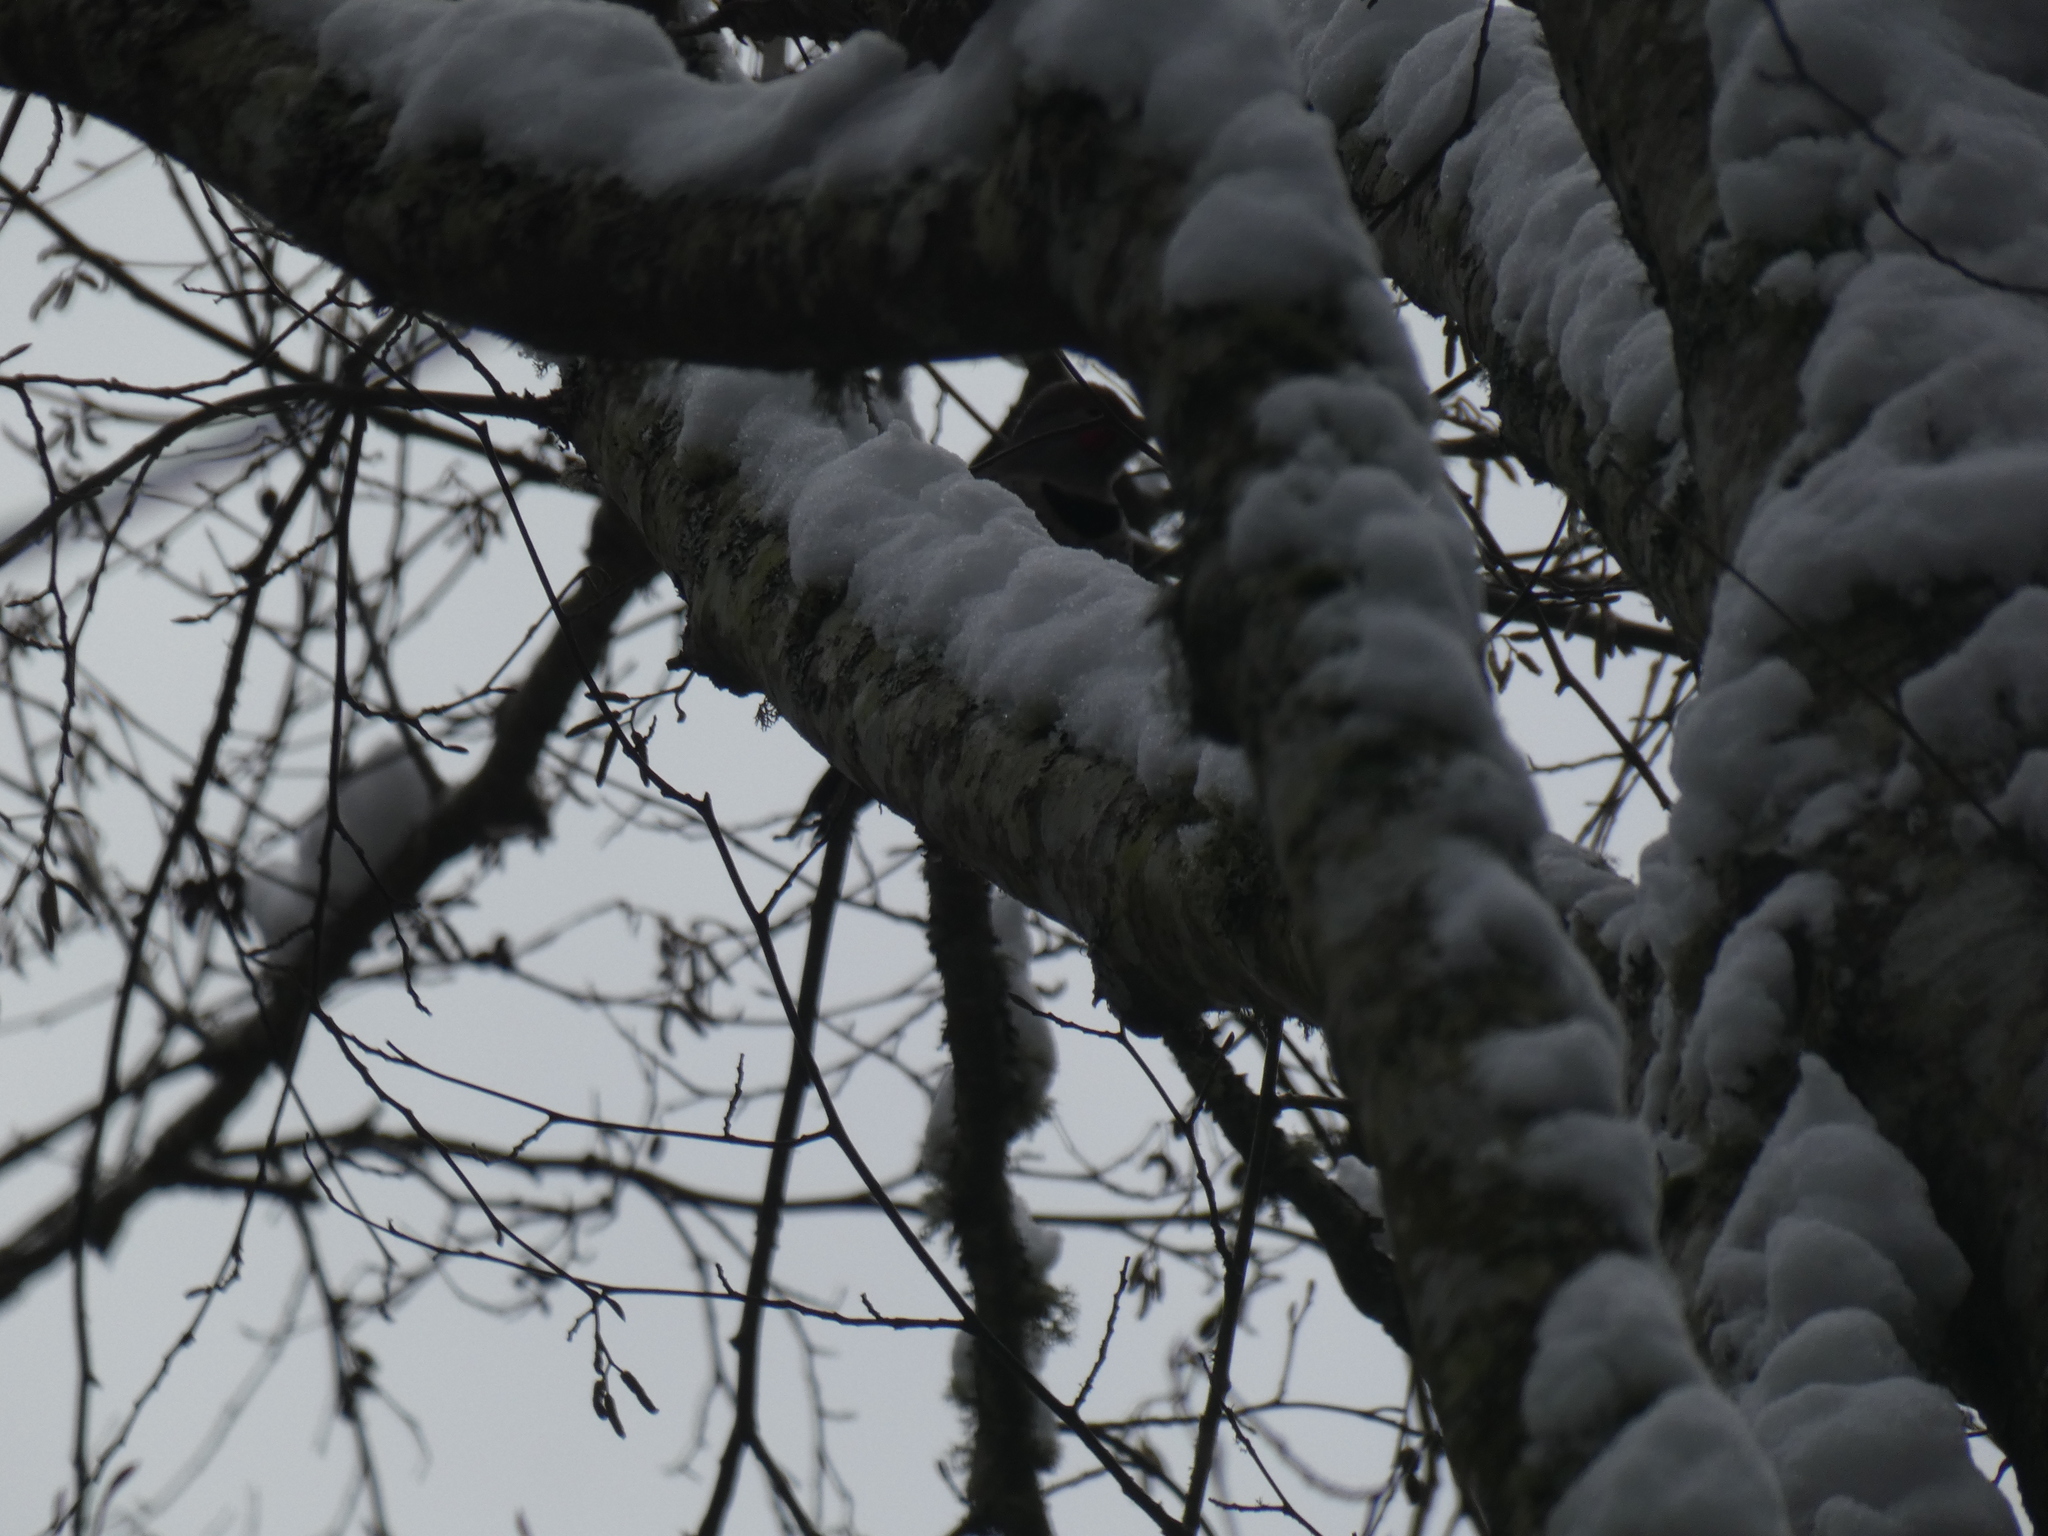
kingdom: Animalia
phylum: Chordata
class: Aves
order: Piciformes
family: Picidae
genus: Colaptes
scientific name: Colaptes auratus
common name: Northern flicker
